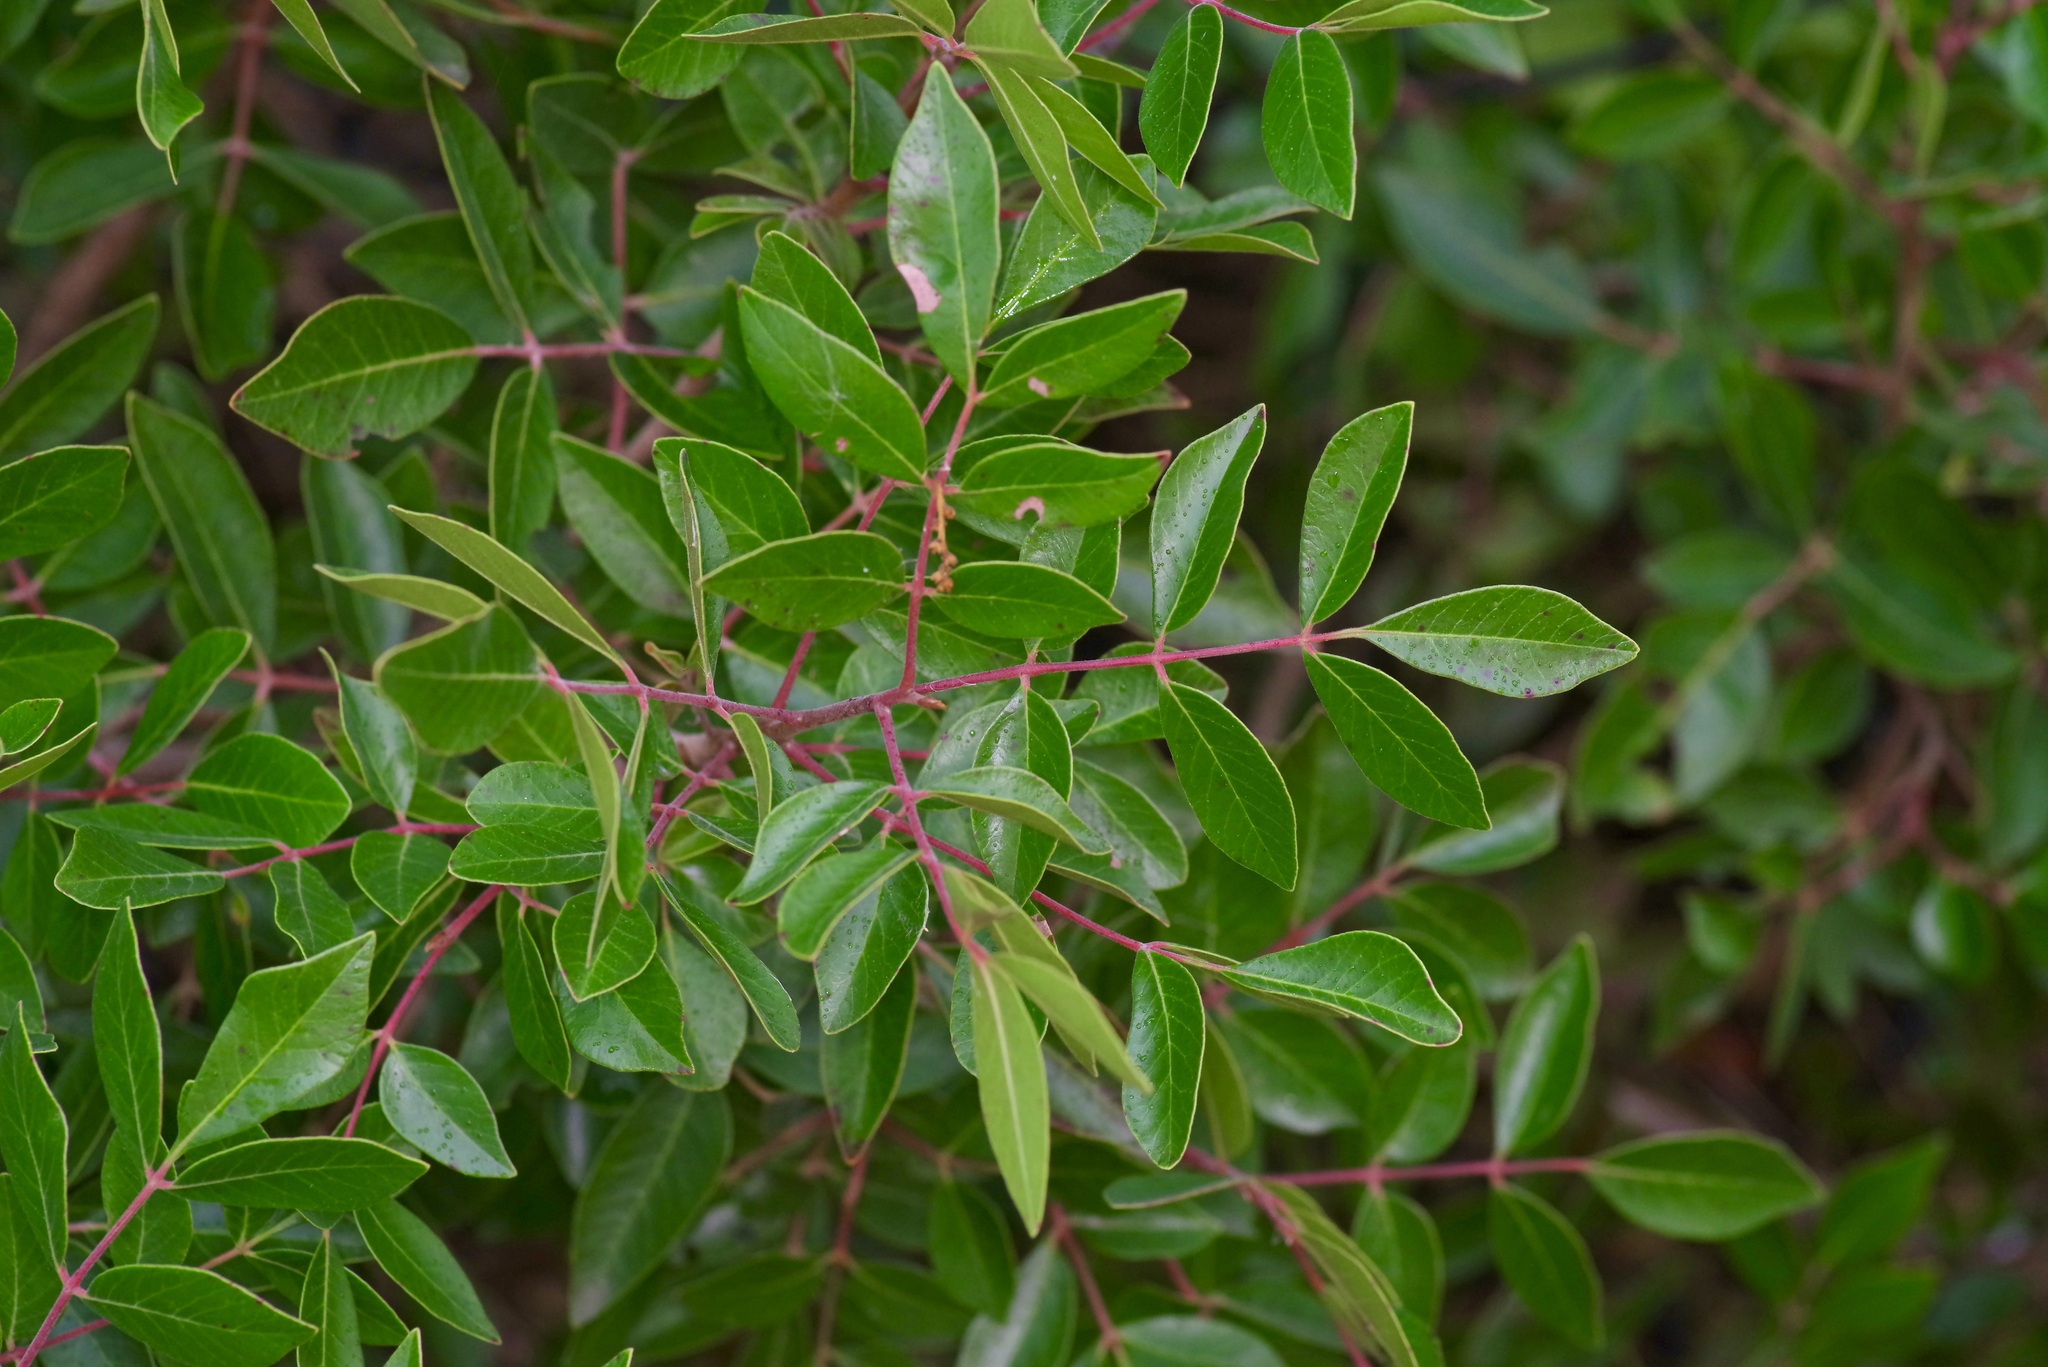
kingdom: Plantae
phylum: Tracheophyta
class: Magnoliopsida
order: Sapindales
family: Anacardiaceae
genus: Rhus
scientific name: Rhus virens
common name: Evergreen sumac
